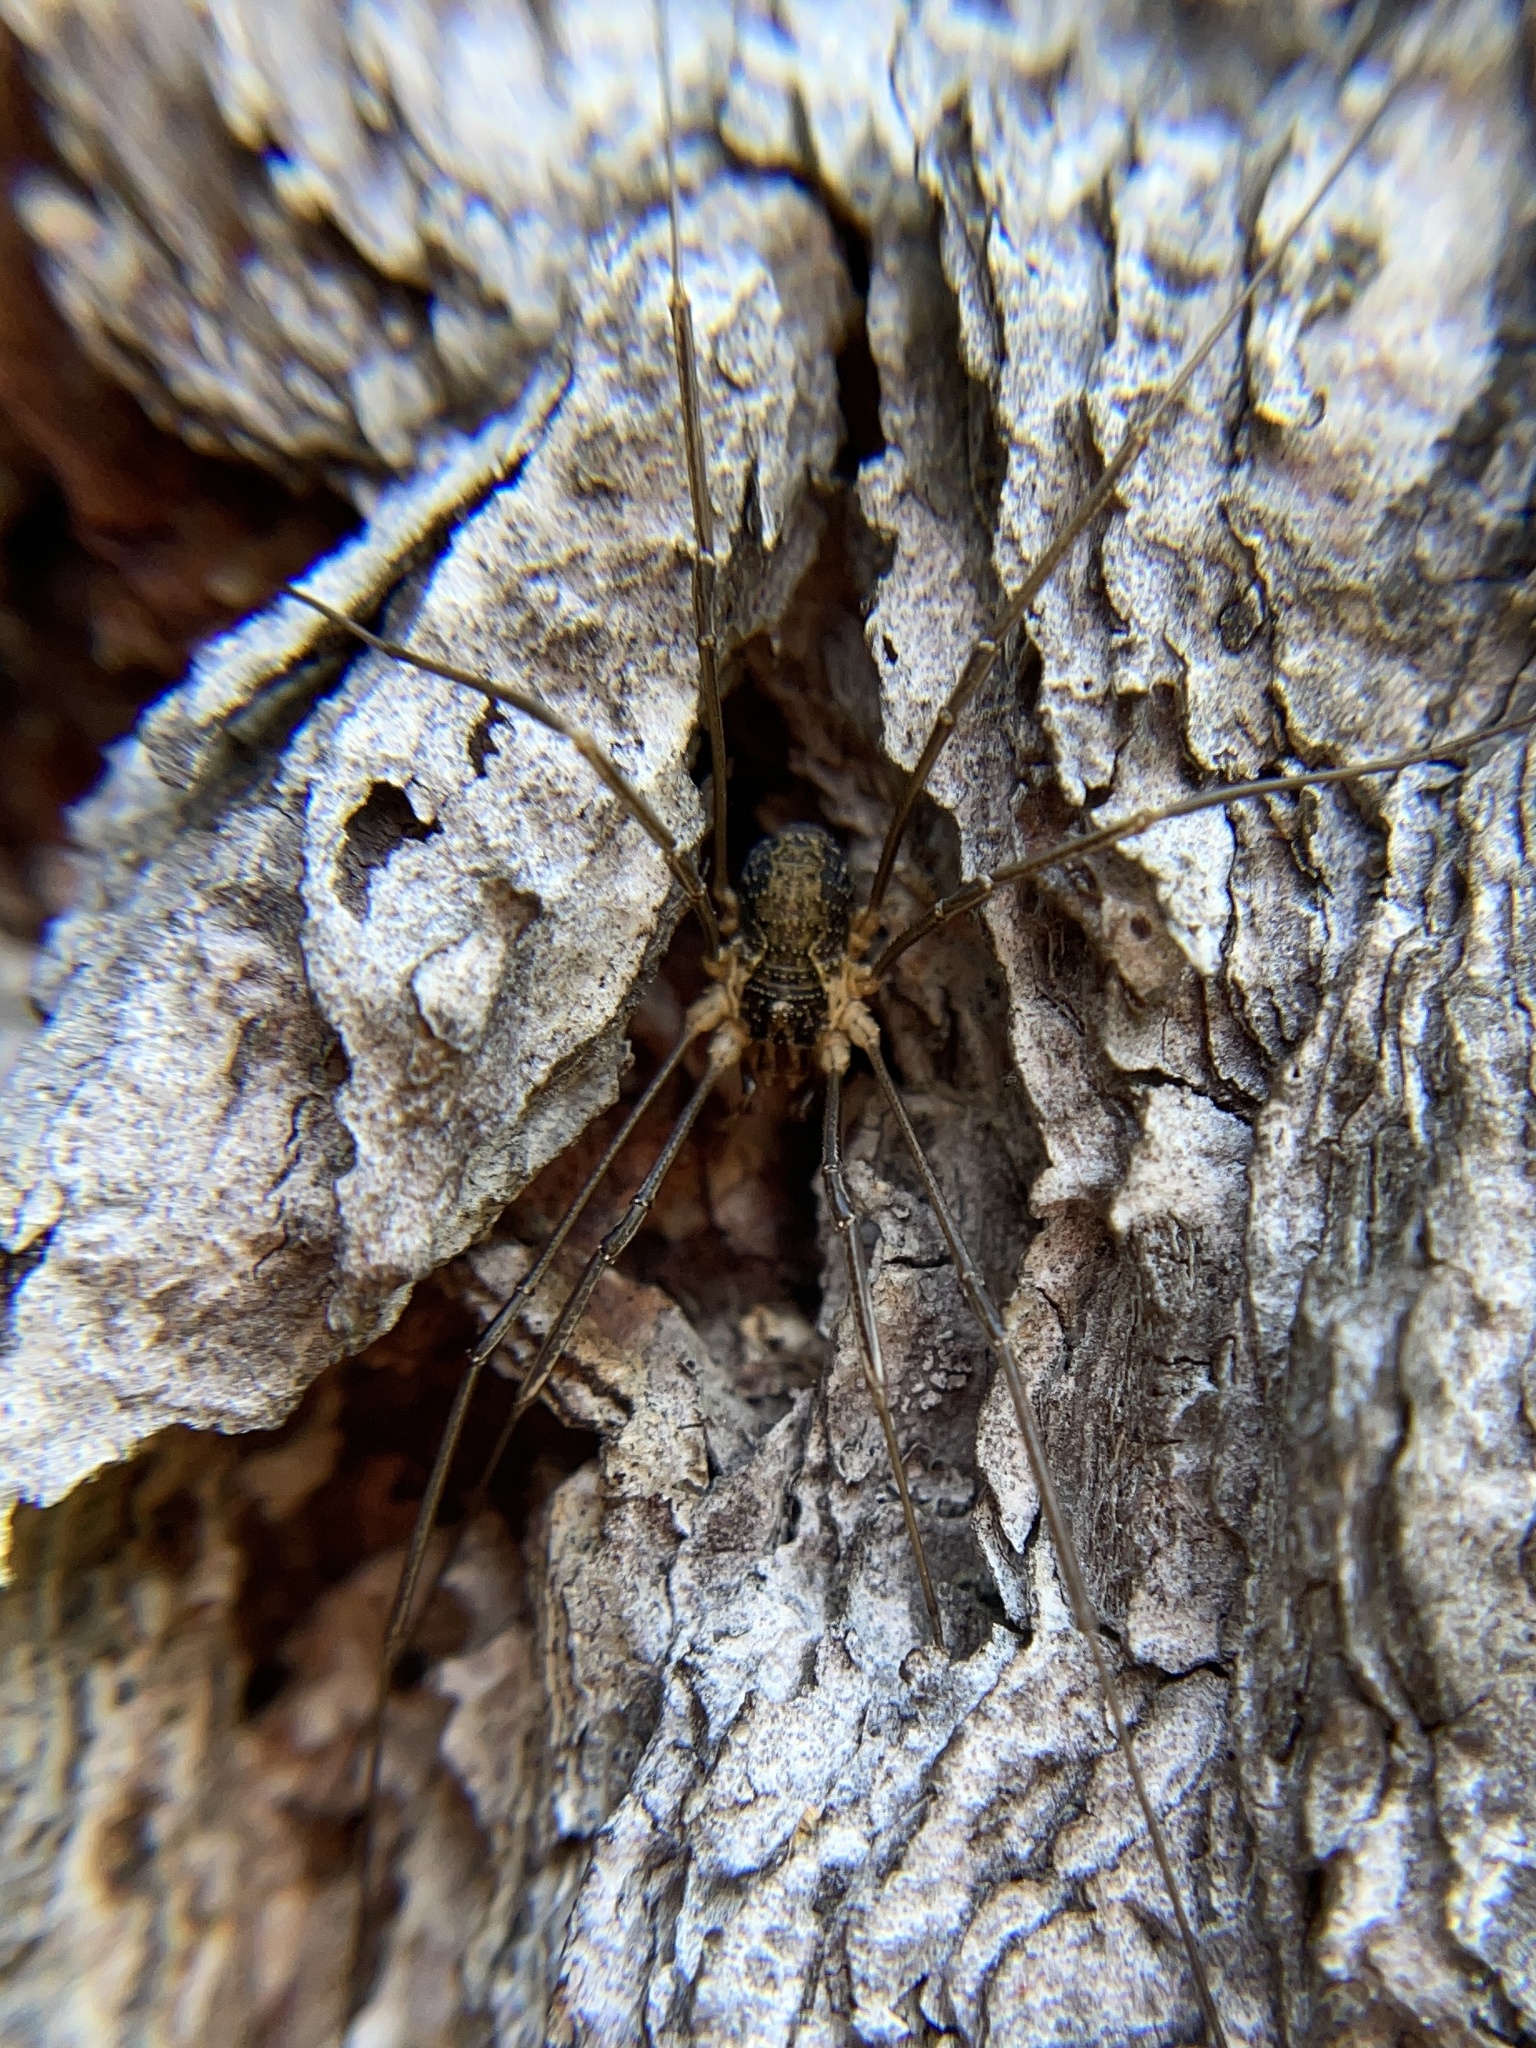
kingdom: Animalia
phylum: Arthropoda
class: Arachnida
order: Opiliones
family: Phalangiidae
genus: Mitopus
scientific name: Mitopus morio
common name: Saddleback harvestman
